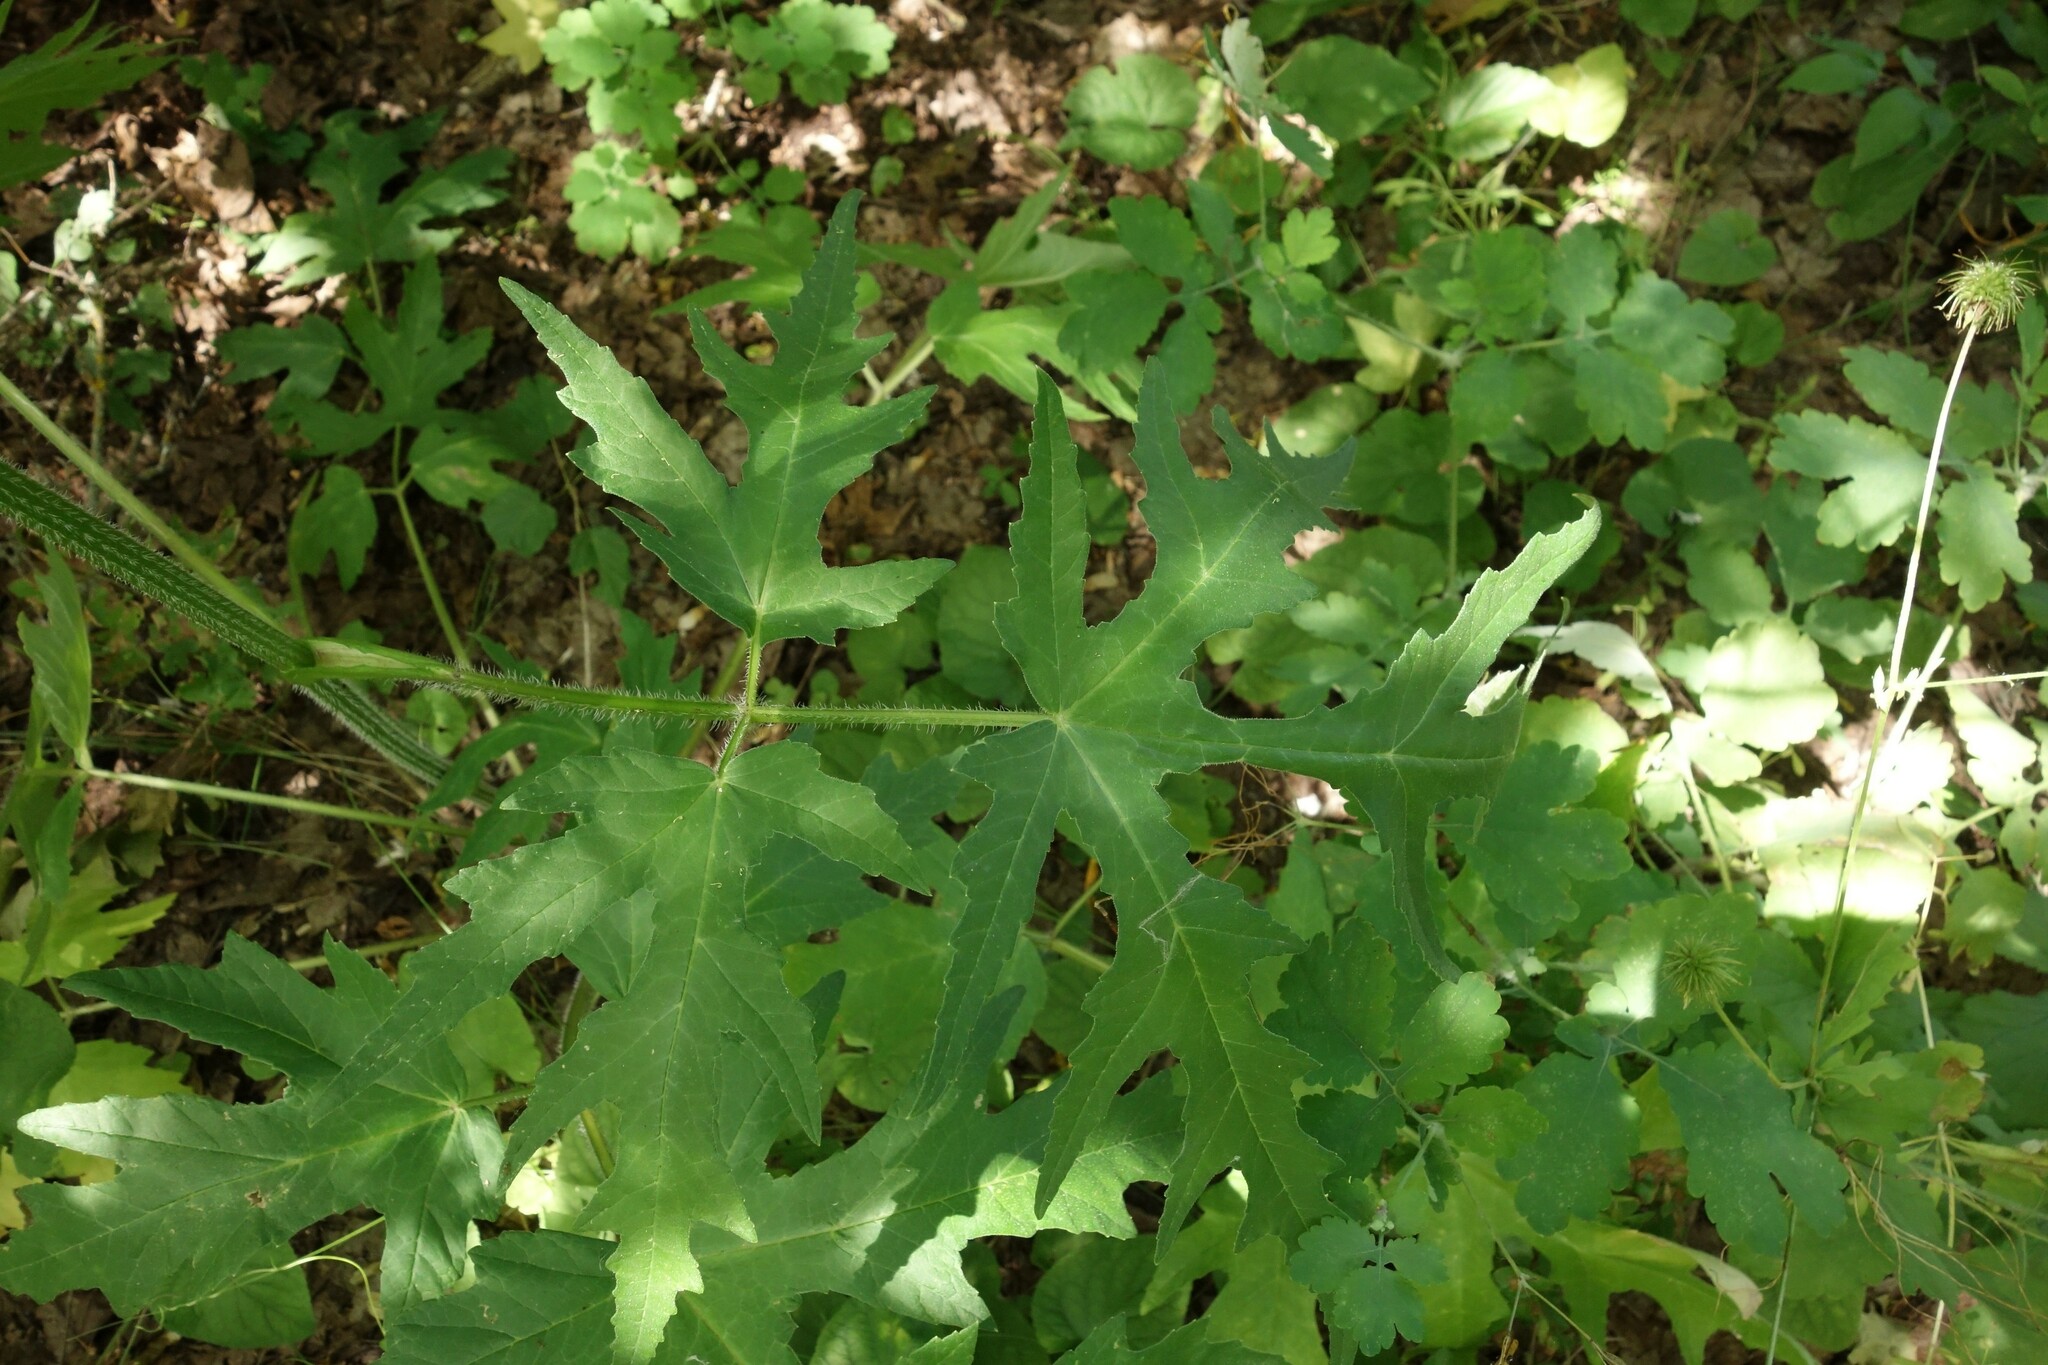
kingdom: Plantae
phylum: Tracheophyta
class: Magnoliopsida
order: Apiales
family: Apiaceae
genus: Heracleum
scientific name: Heracleum sphondylium
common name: Hogweed
